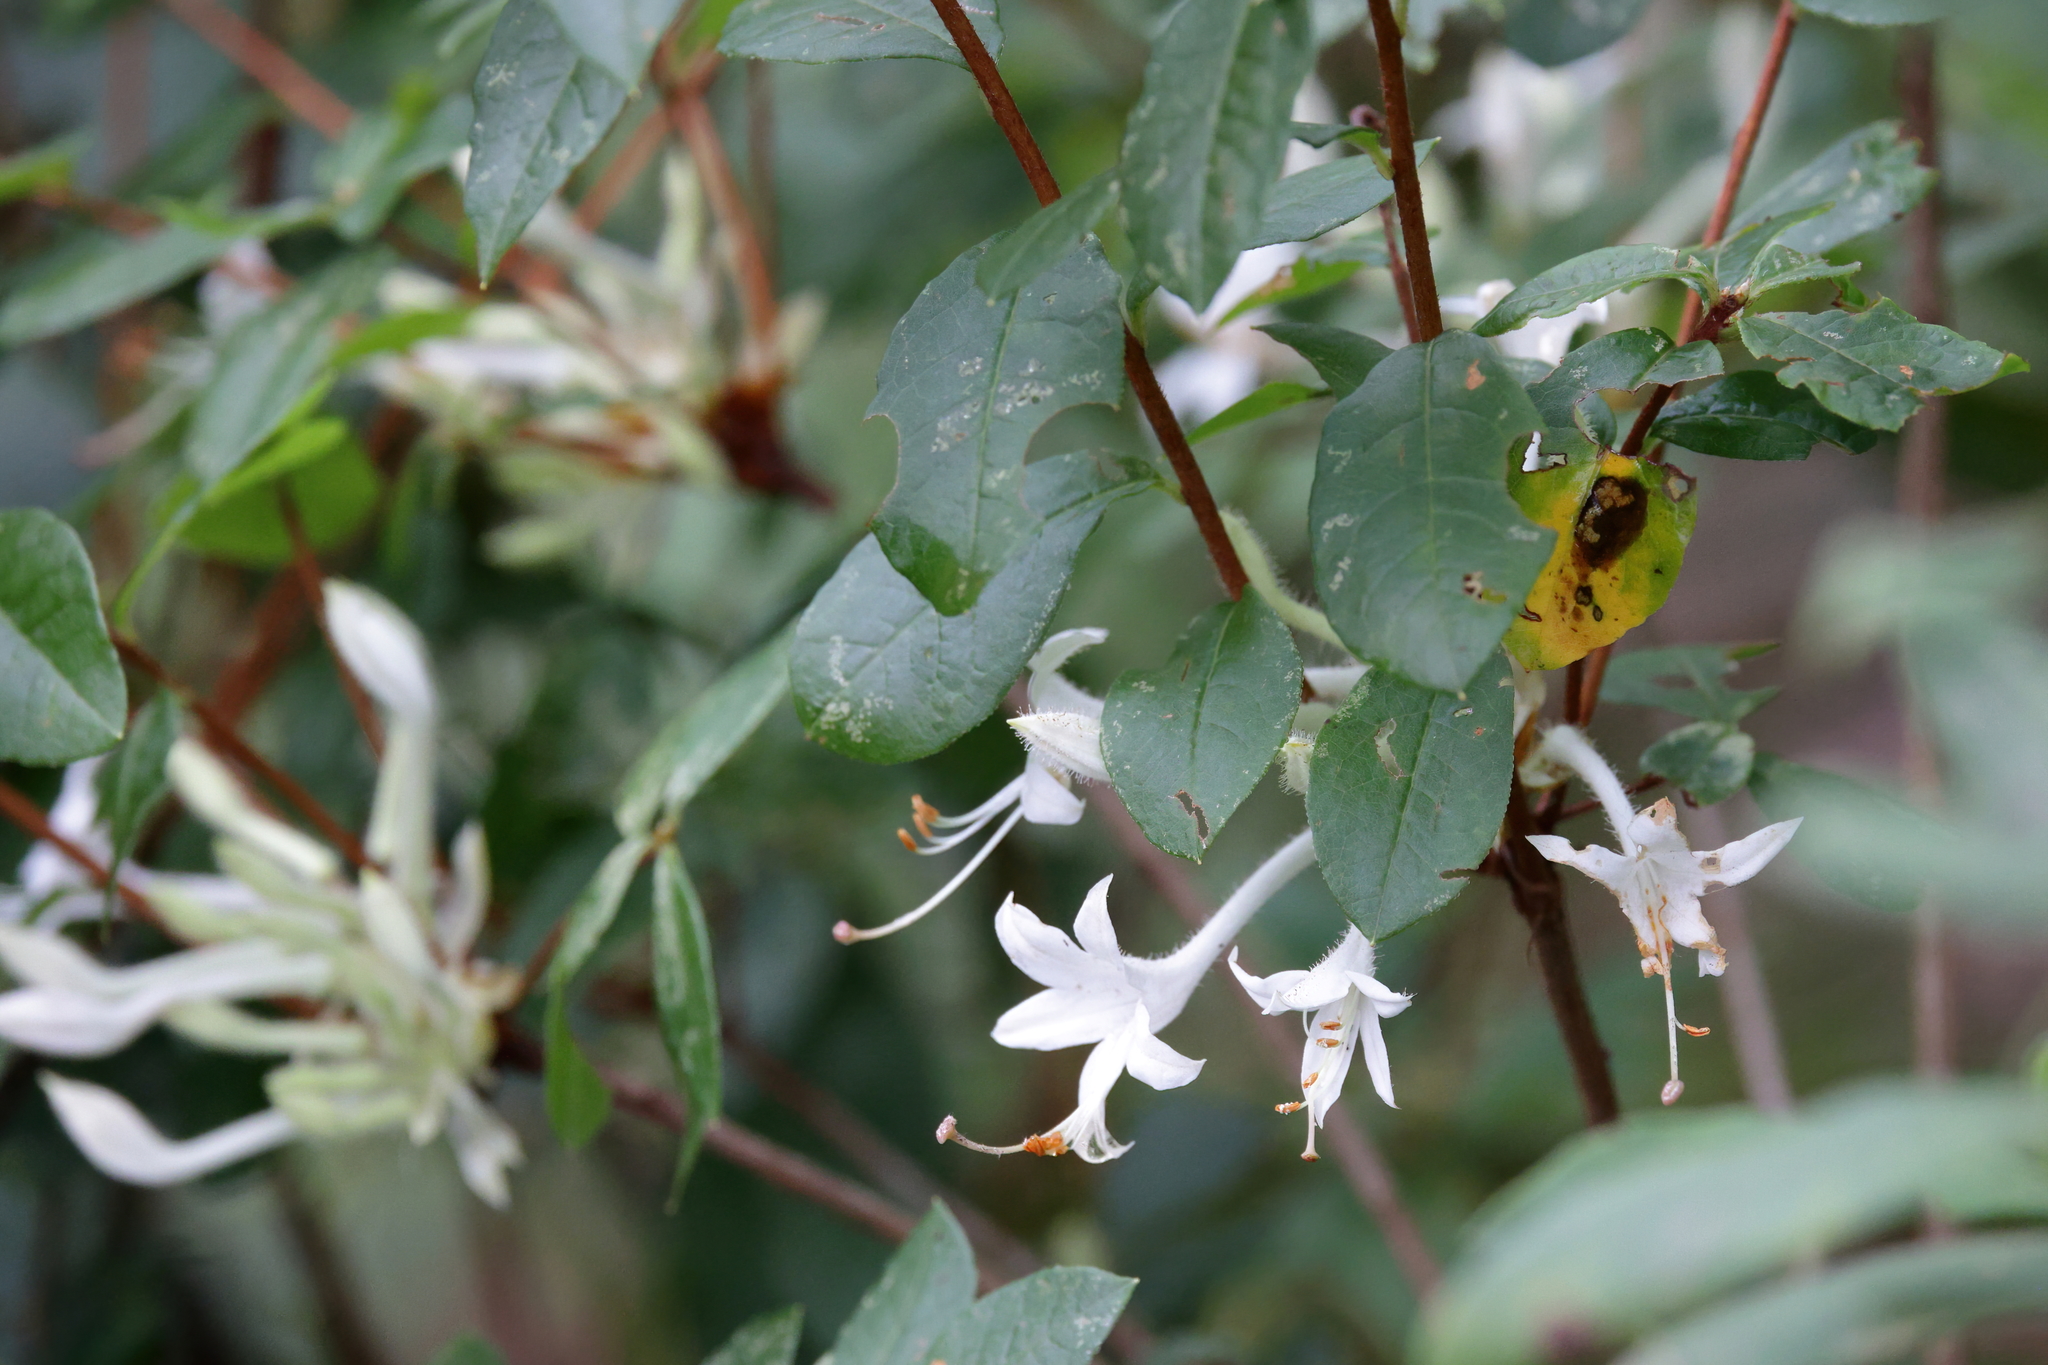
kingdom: Plantae
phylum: Tracheophyta
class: Magnoliopsida
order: Ericales
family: Ericaceae
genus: Rhododendron
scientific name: Rhododendron serrulatum
